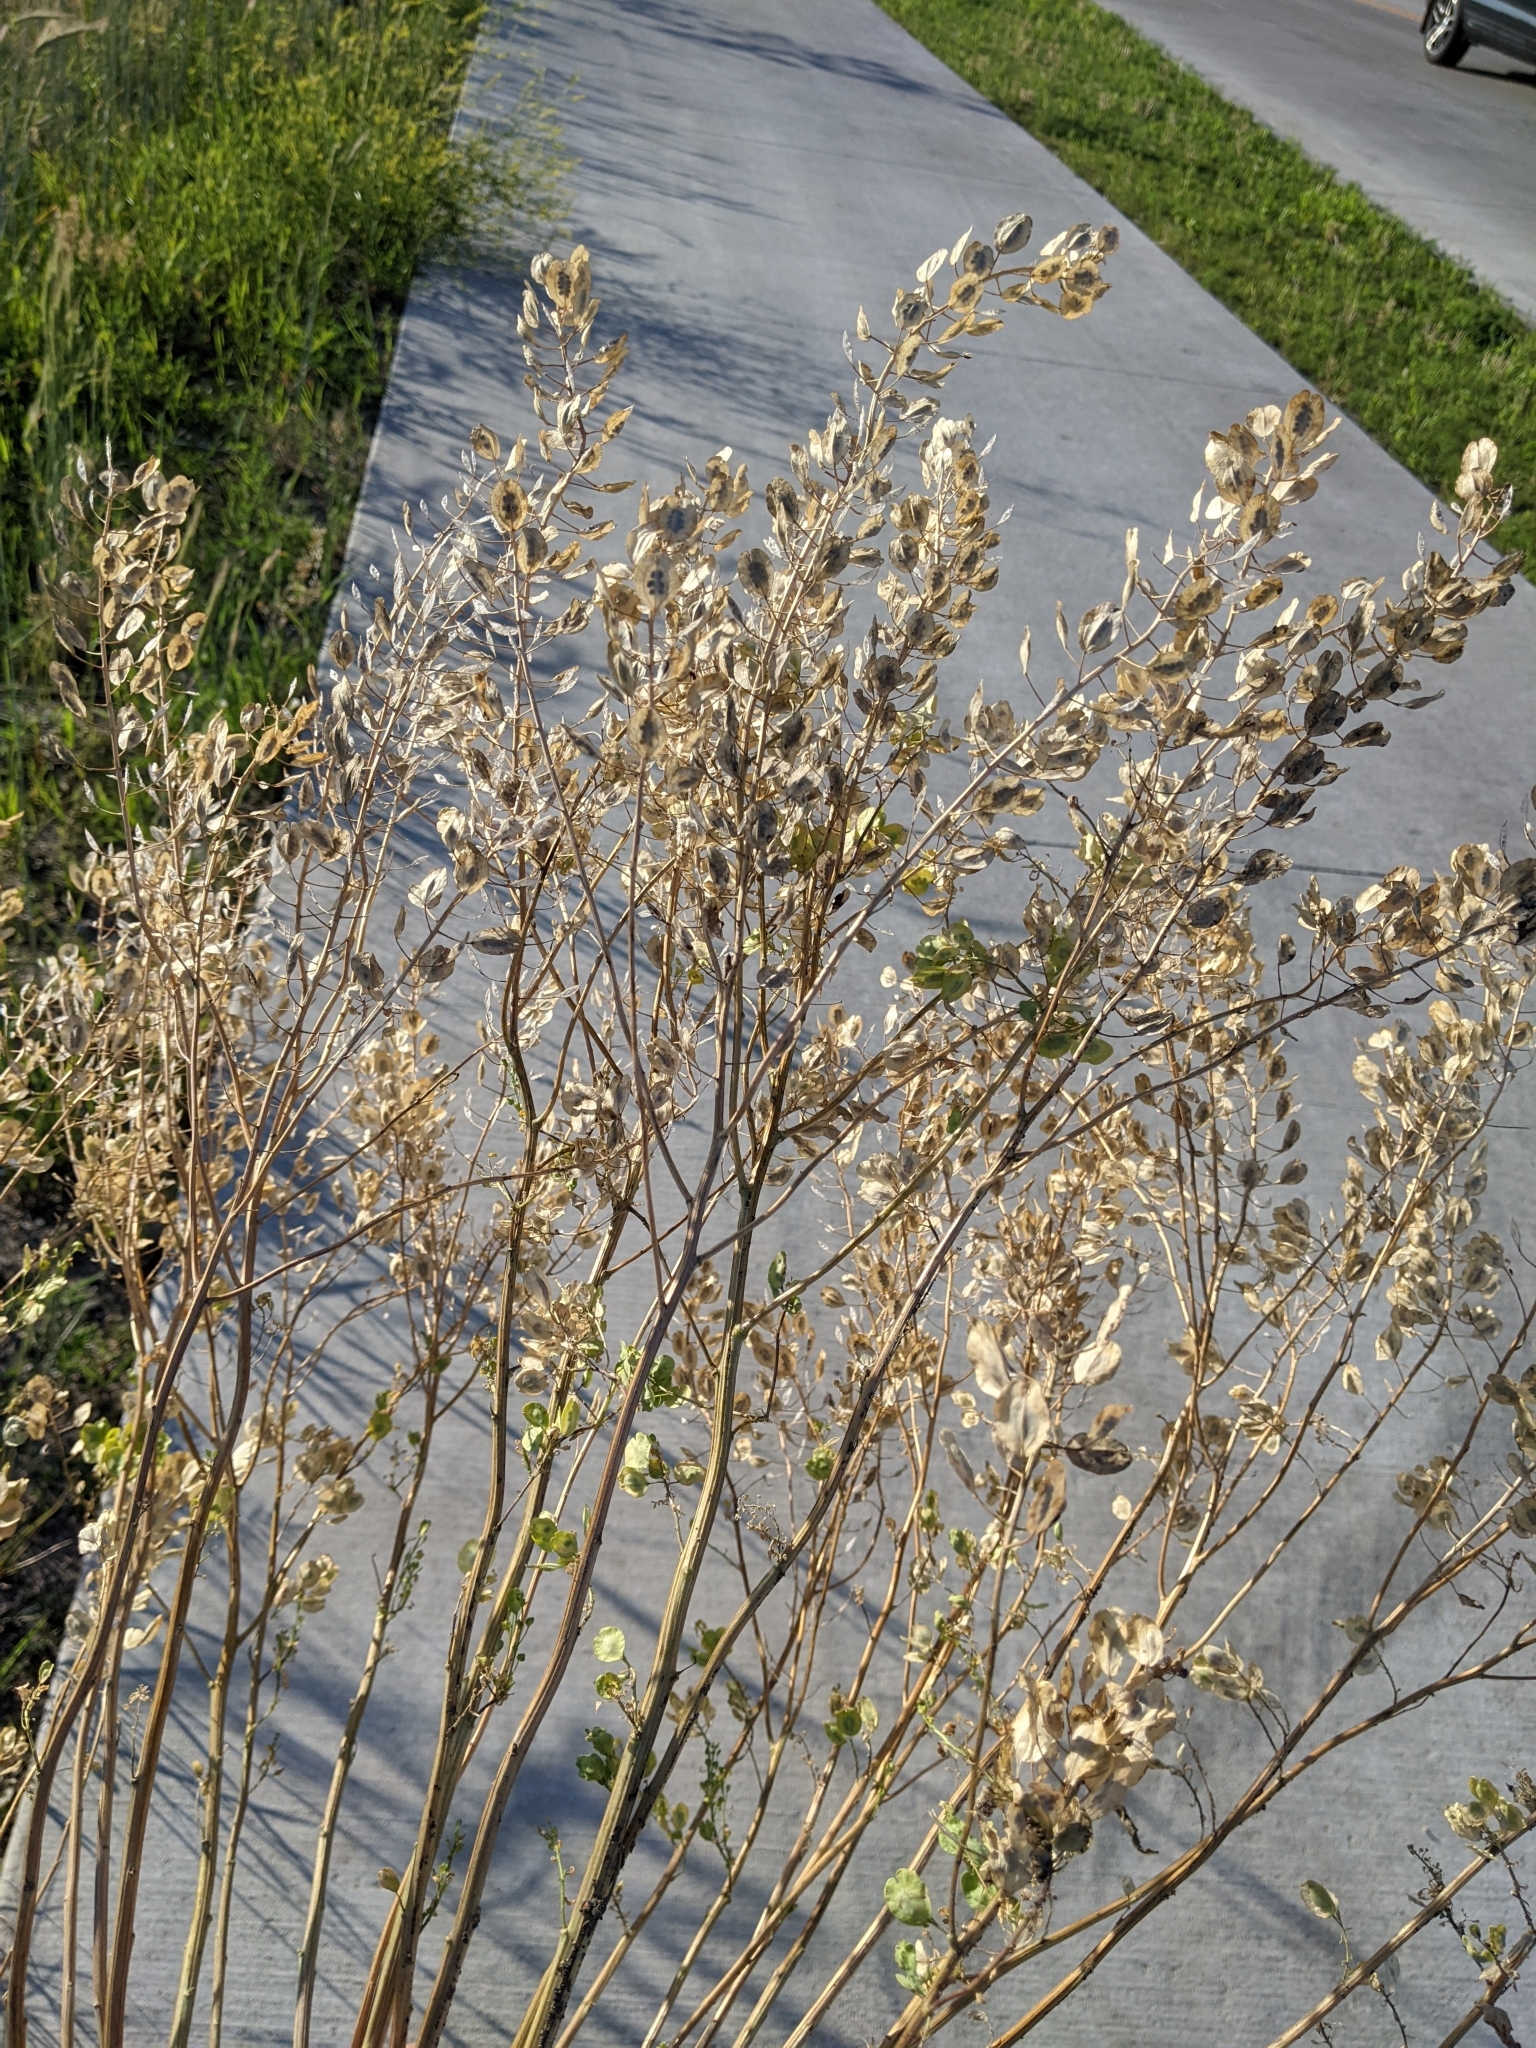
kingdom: Plantae
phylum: Tracheophyta
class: Magnoliopsida
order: Brassicales
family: Brassicaceae
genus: Thlaspi
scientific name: Thlaspi arvense
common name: Field pennycress
